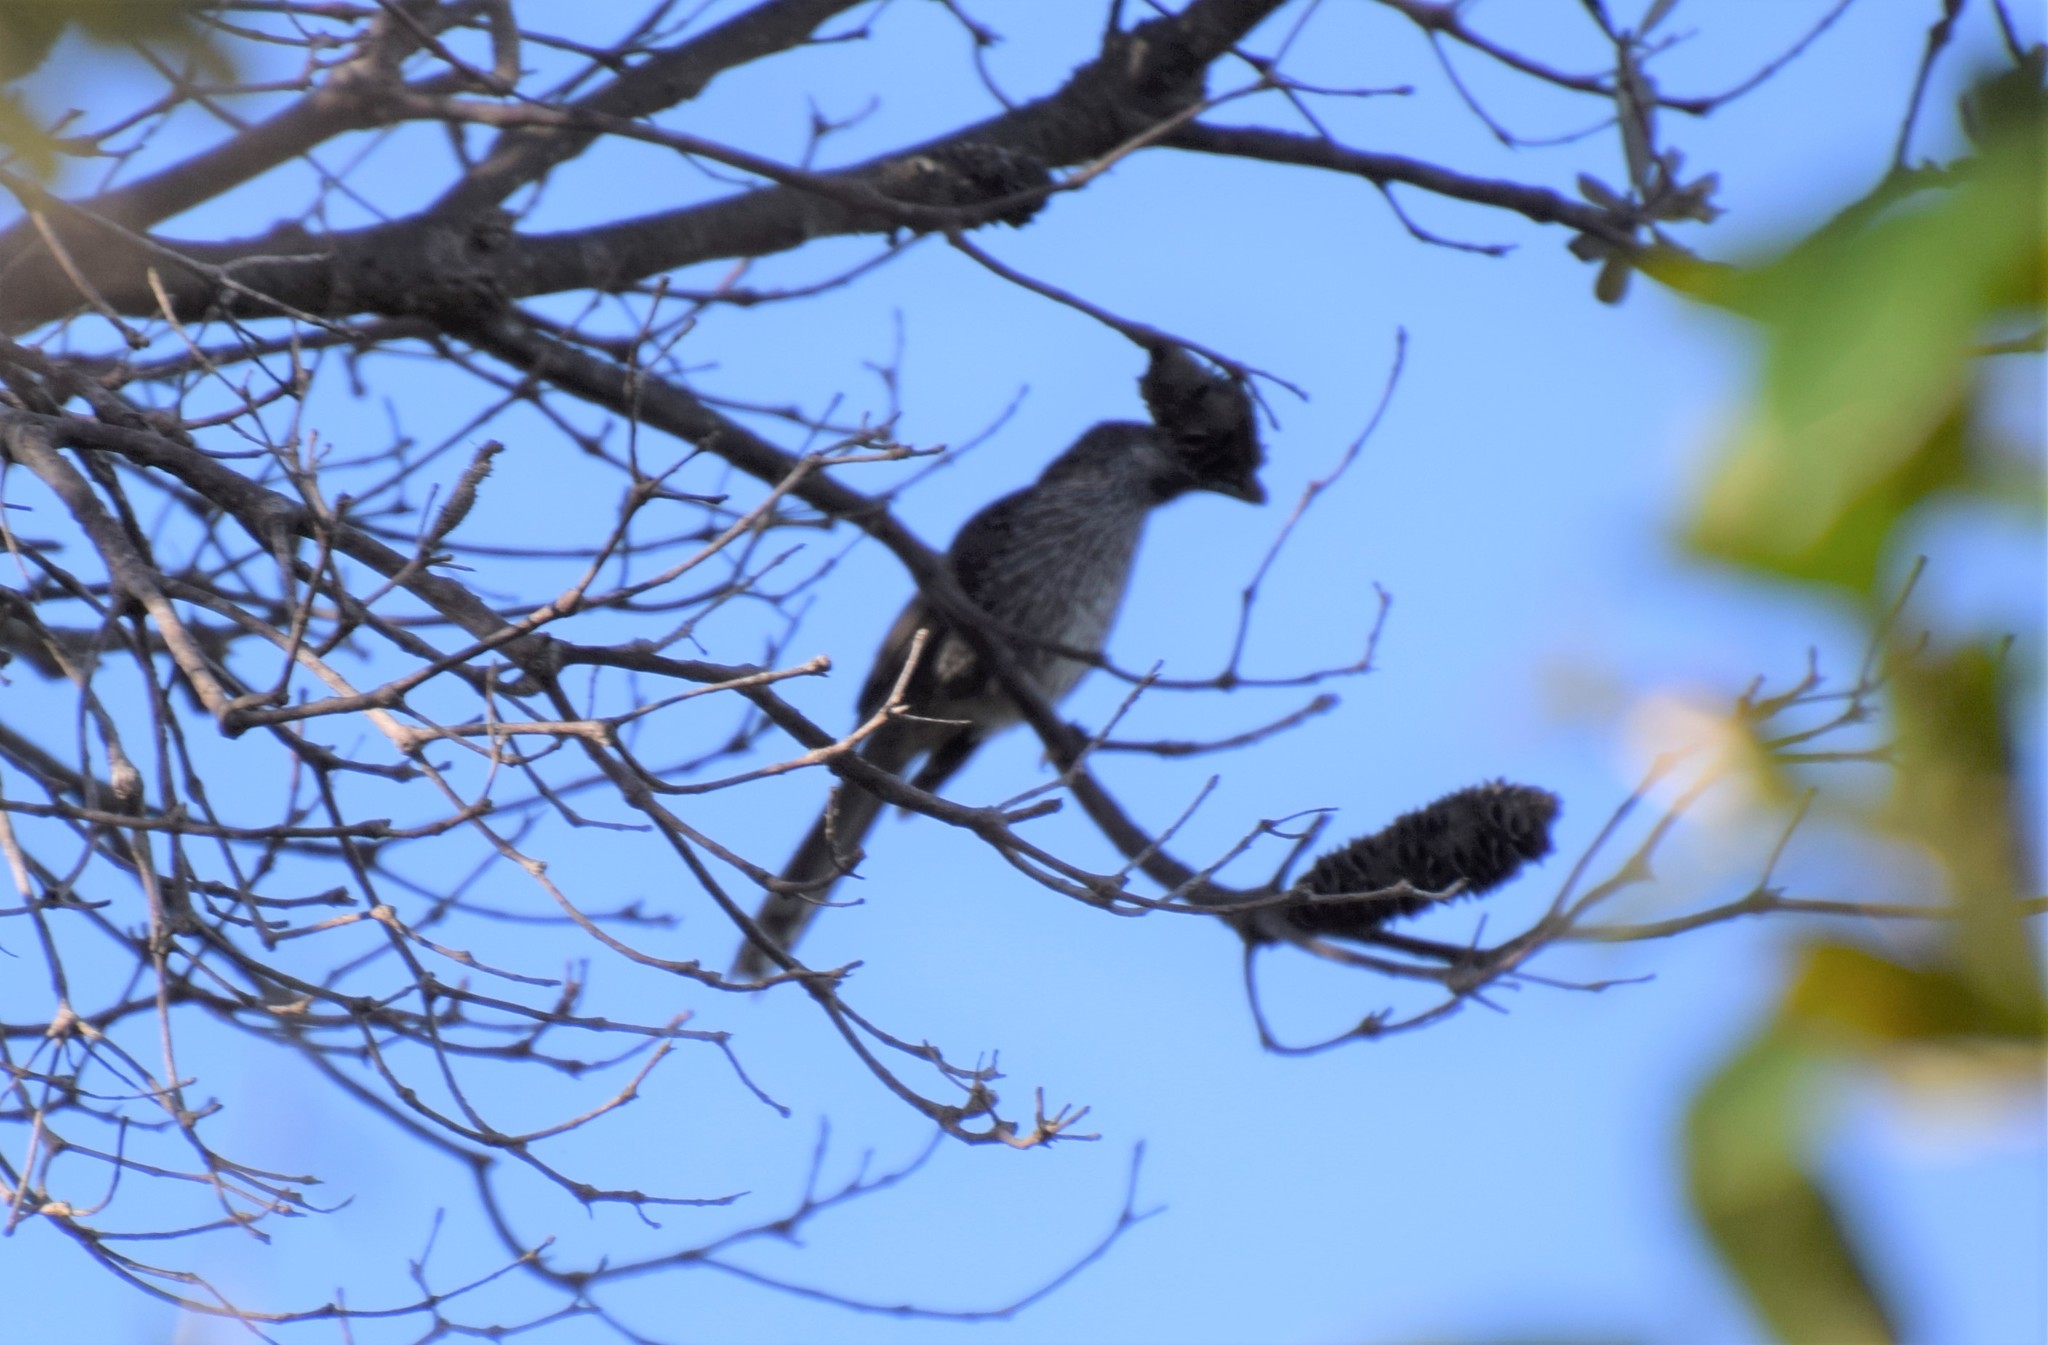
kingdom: Animalia
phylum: Chordata
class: Aves
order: Passeriformes
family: Meliphagidae
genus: Anthochaera
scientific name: Anthochaera chrysoptera
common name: Little wattlebird
